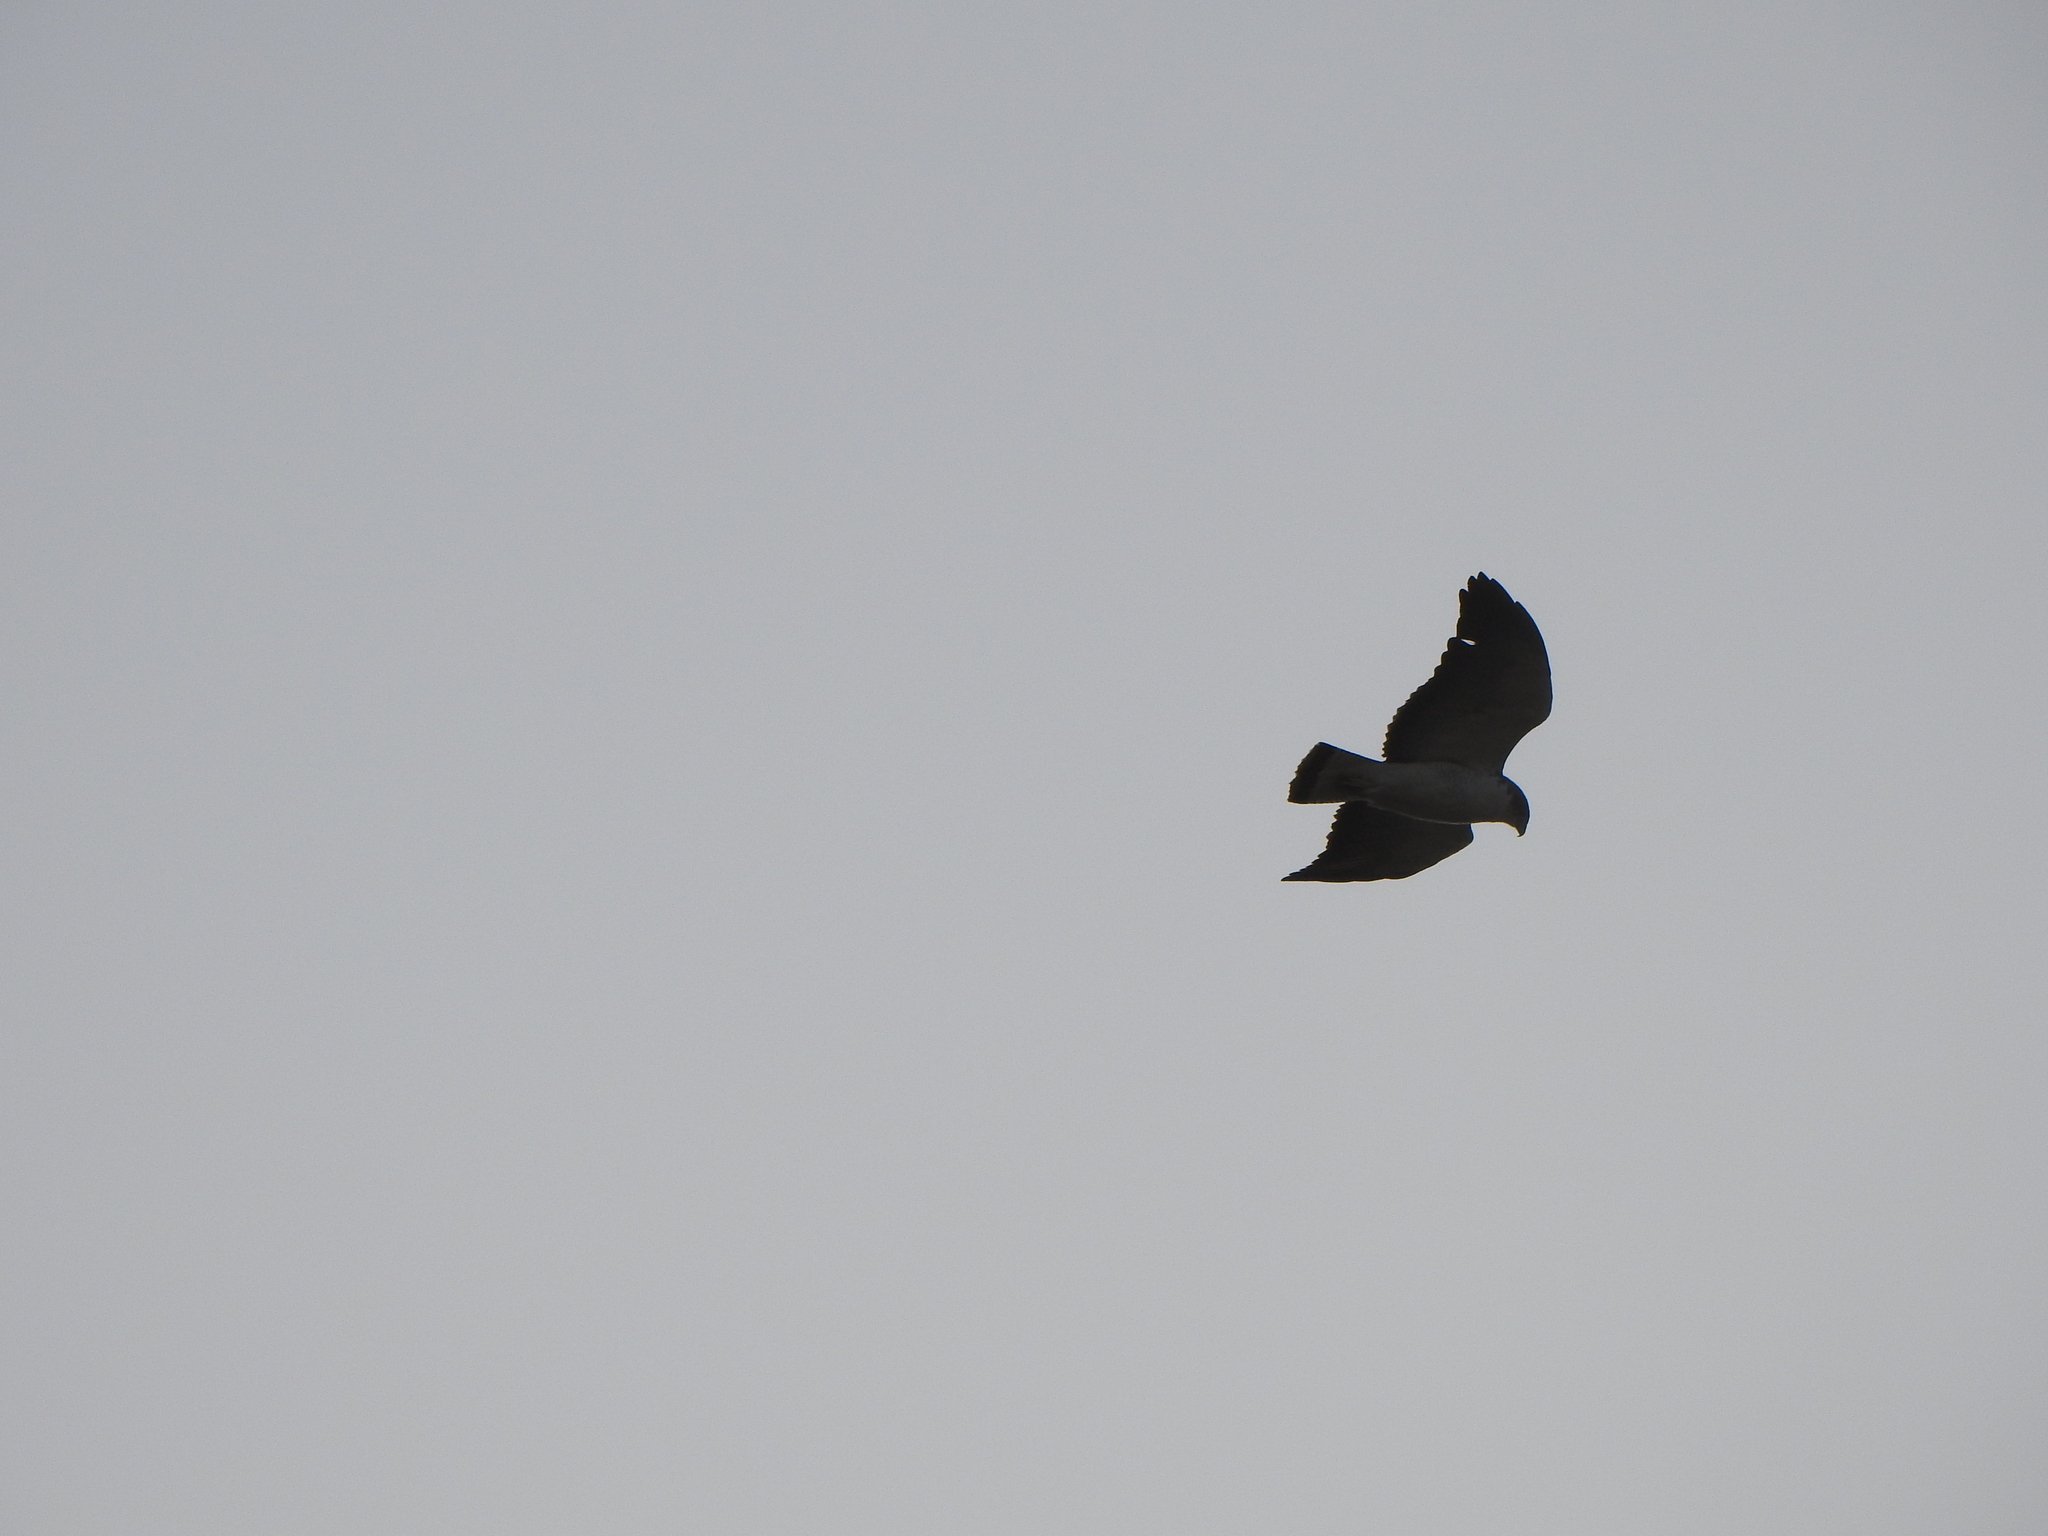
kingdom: Animalia
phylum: Chordata
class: Aves
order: Accipitriformes
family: Accipitridae
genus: Buteo
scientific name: Buteo polyosoma
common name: Variable hawk
